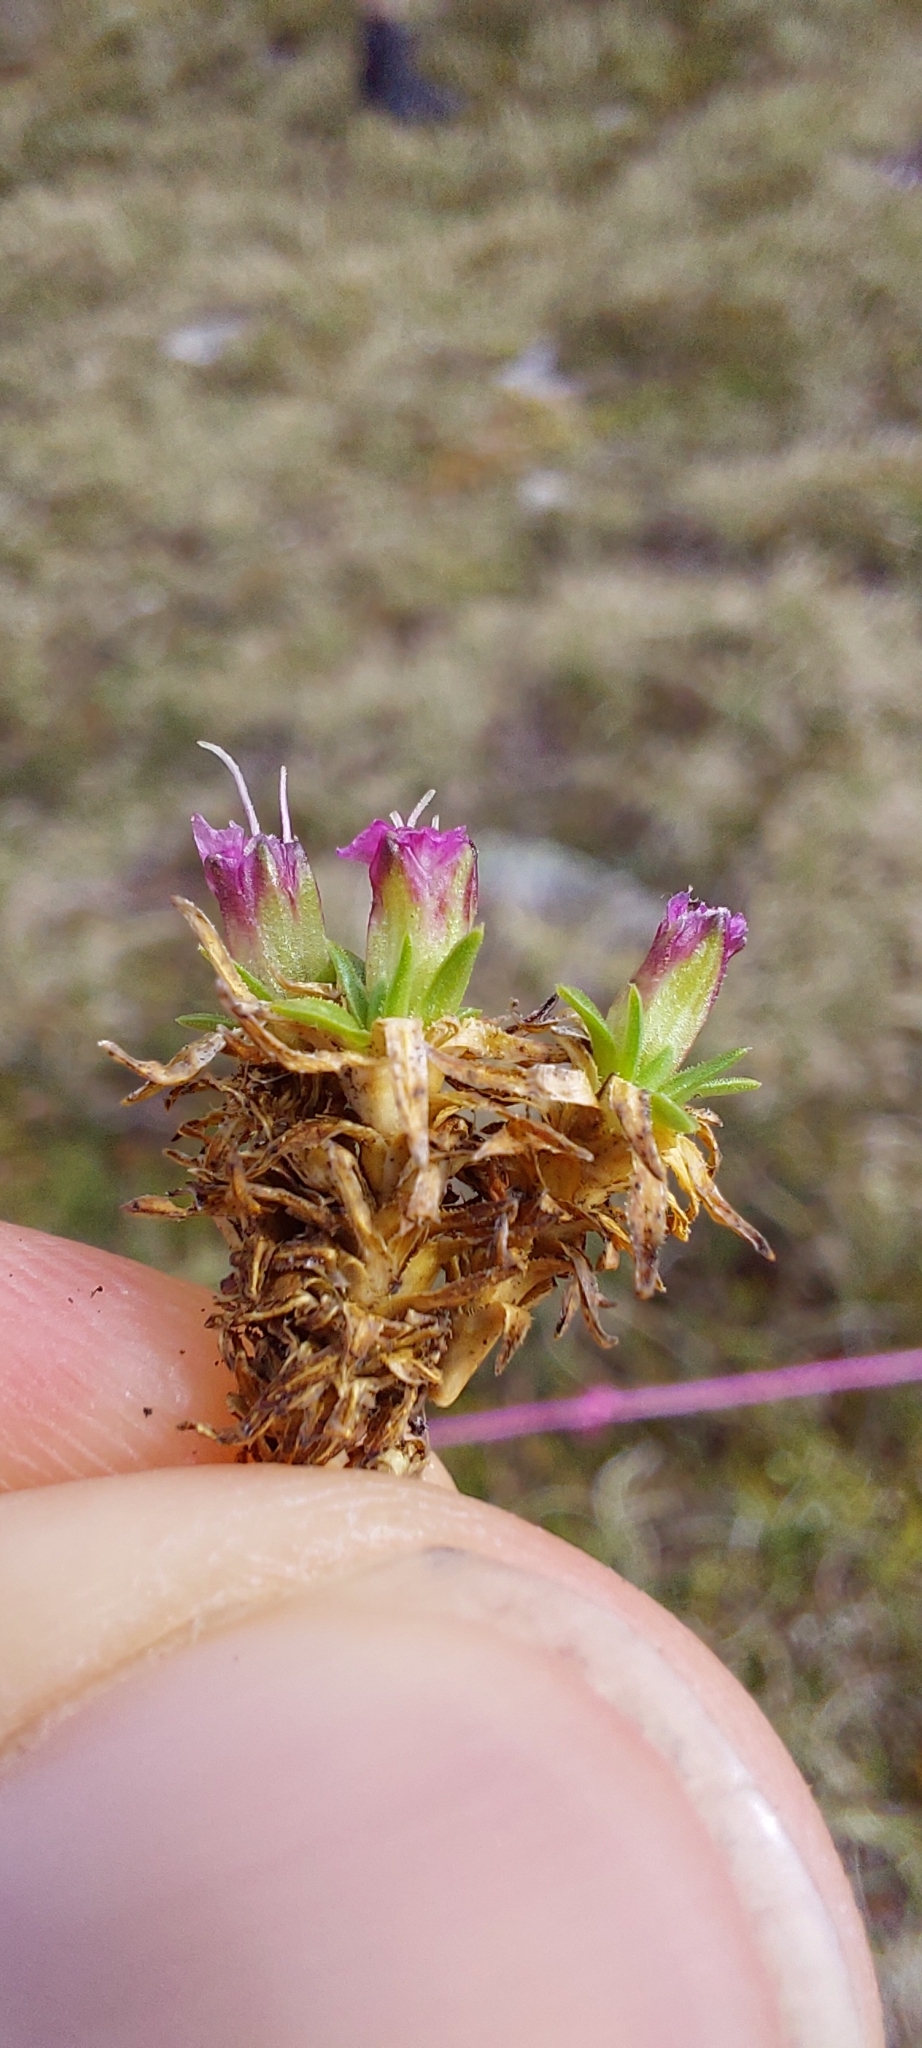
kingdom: Plantae
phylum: Tracheophyta
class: Magnoliopsida
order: Caryophyllales
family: Caryophyllaceae
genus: Silene
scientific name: Silene acaulis
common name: Moss campion
